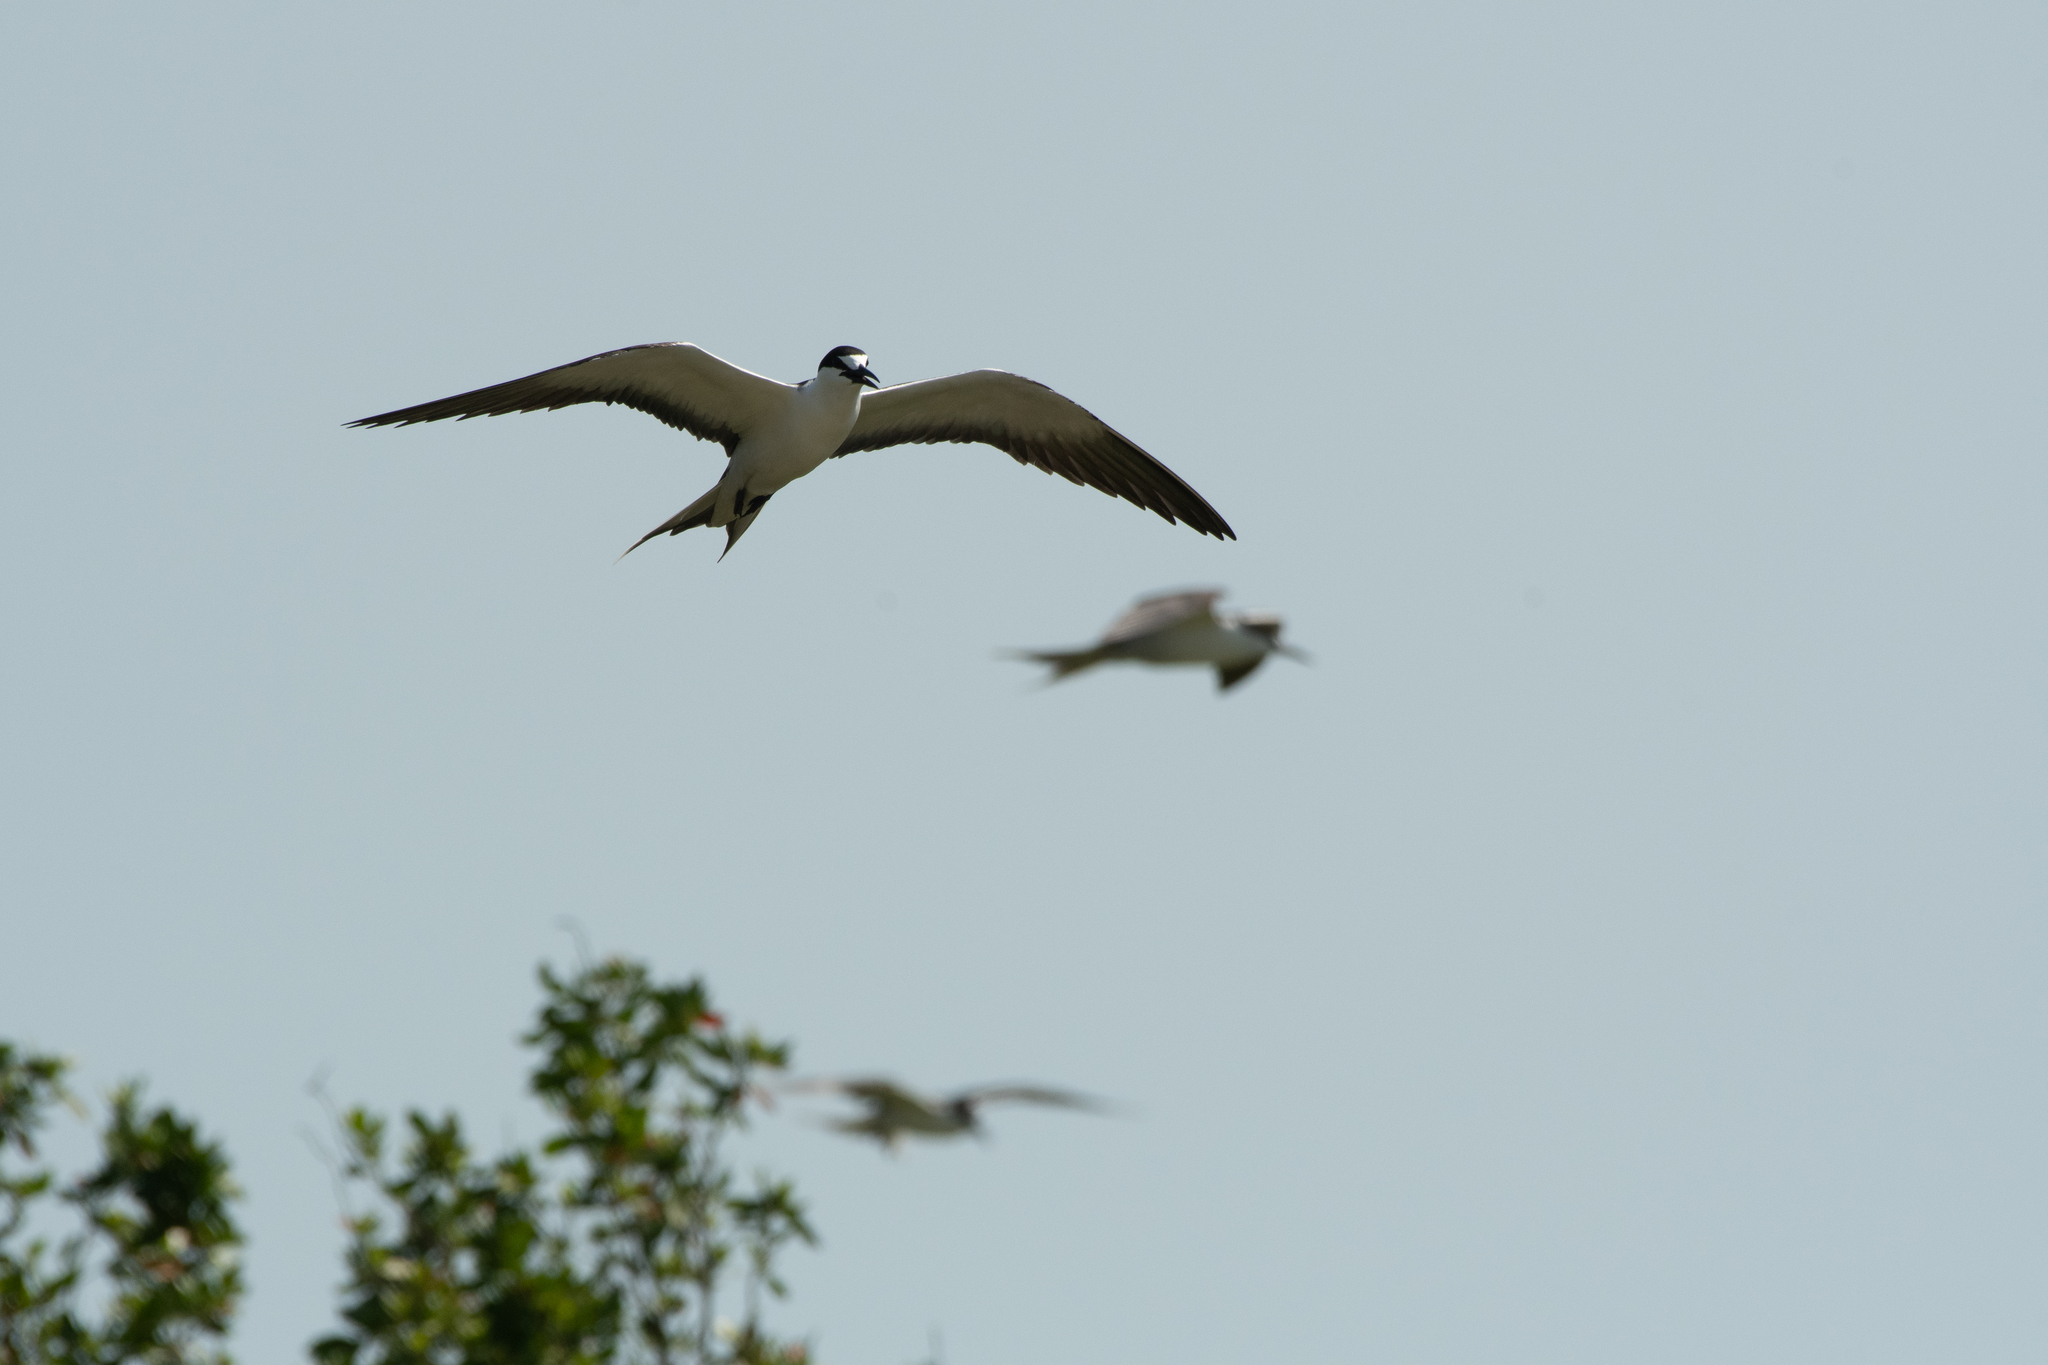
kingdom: Animalia
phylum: Chordata
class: Aves
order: Charadriiformes
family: Laridae
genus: Onychoprion
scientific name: Onychoprion fuscatus
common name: Sooty tern
